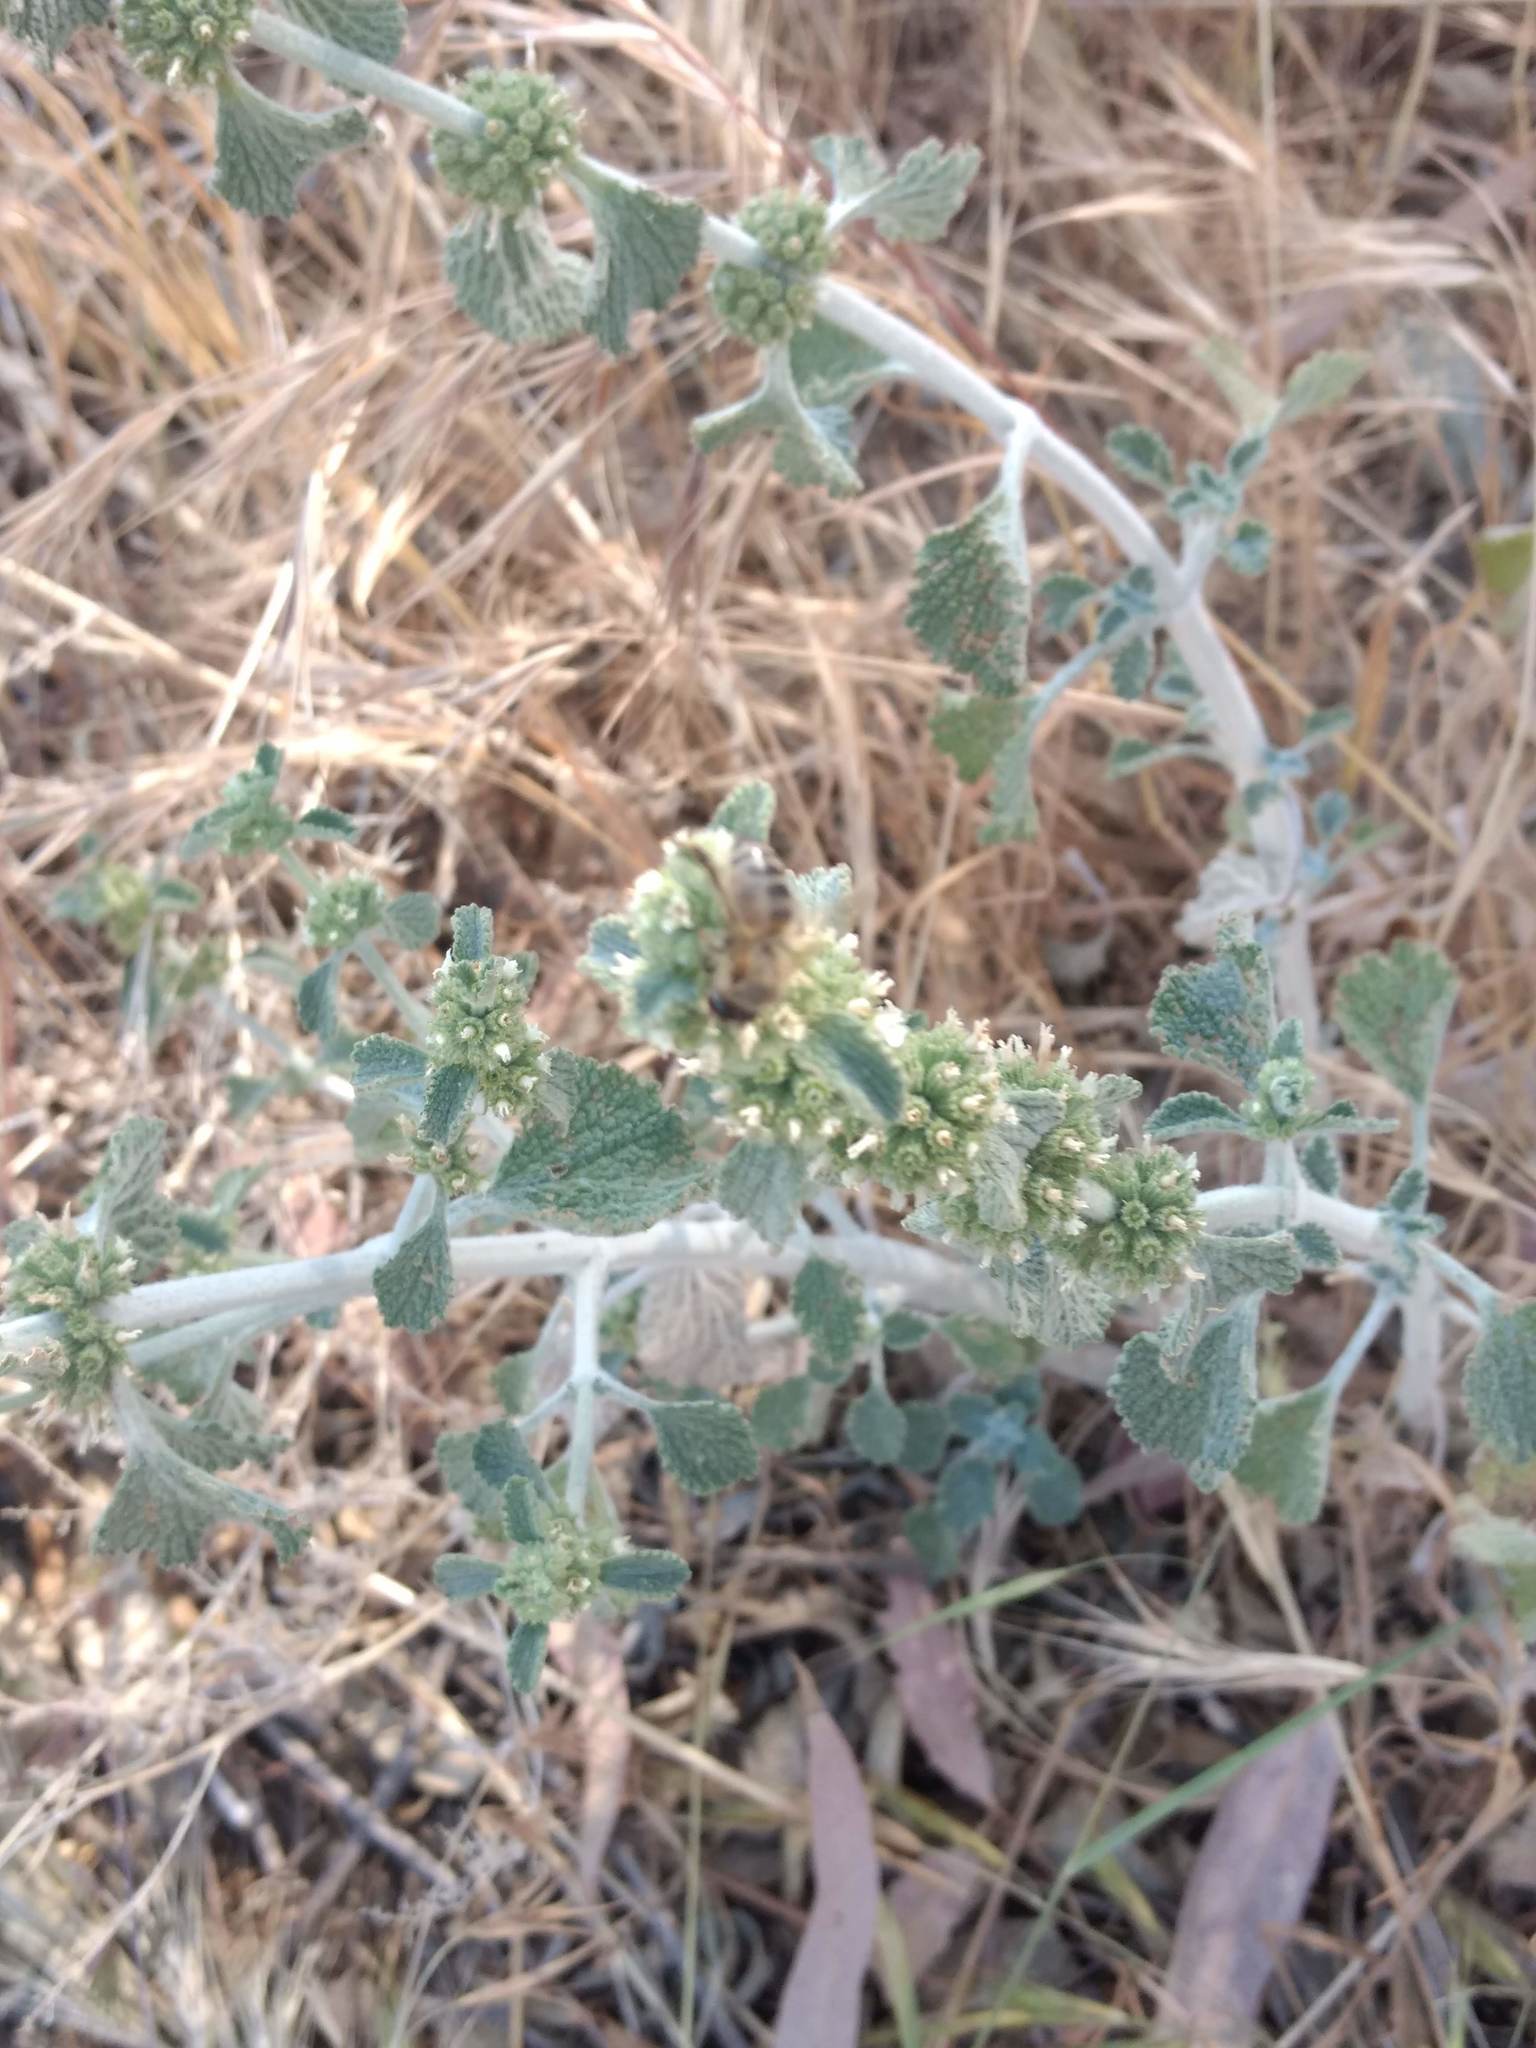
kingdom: Plantae
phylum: Tracheophyta
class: Magnoliopsida
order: Lamiales
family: Lamiaceae
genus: Marrubium
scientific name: Marrubium vulgare
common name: Horehound
